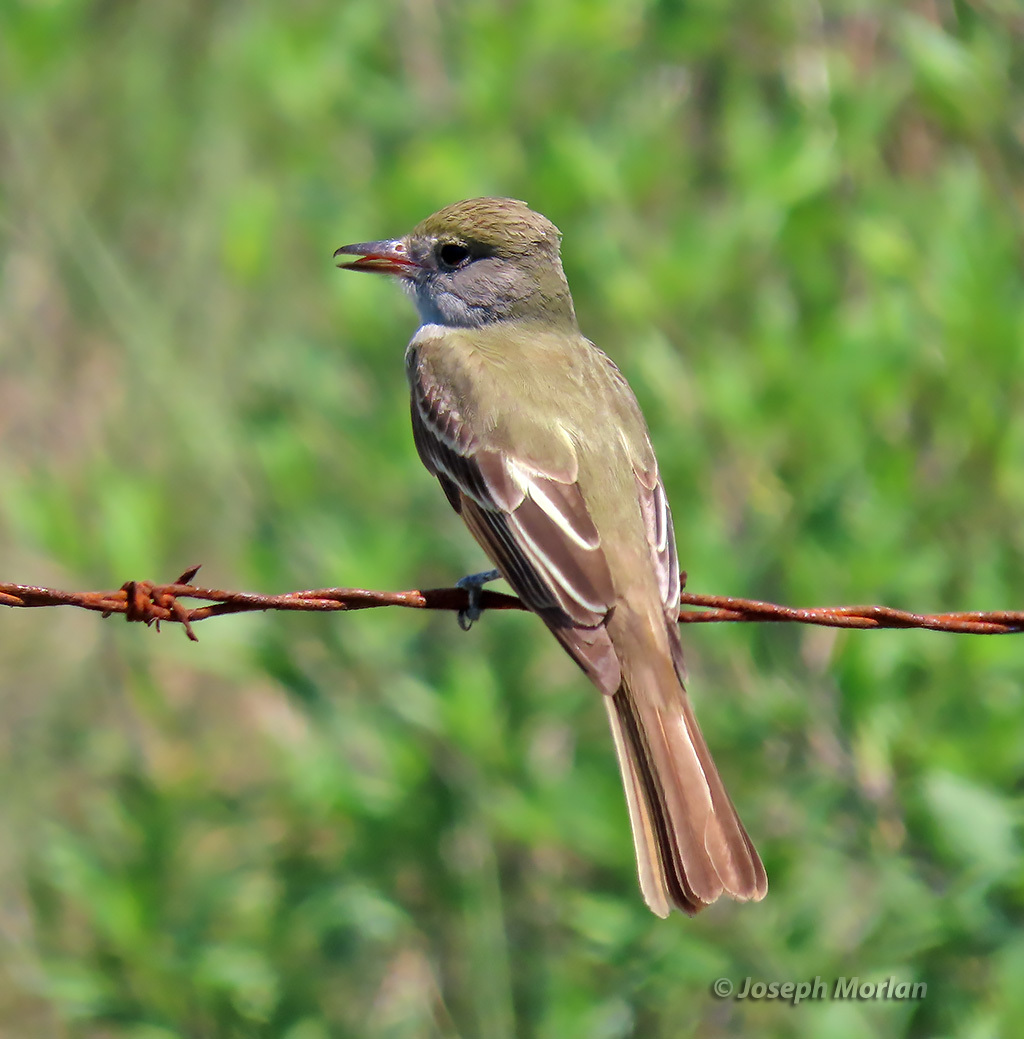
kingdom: Animalia
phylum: Chordata
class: Aves
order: Passeriformes
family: Tyrannidae
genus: Myiarchus
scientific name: Myiarchus crinitus
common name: Great crested flycatcher
